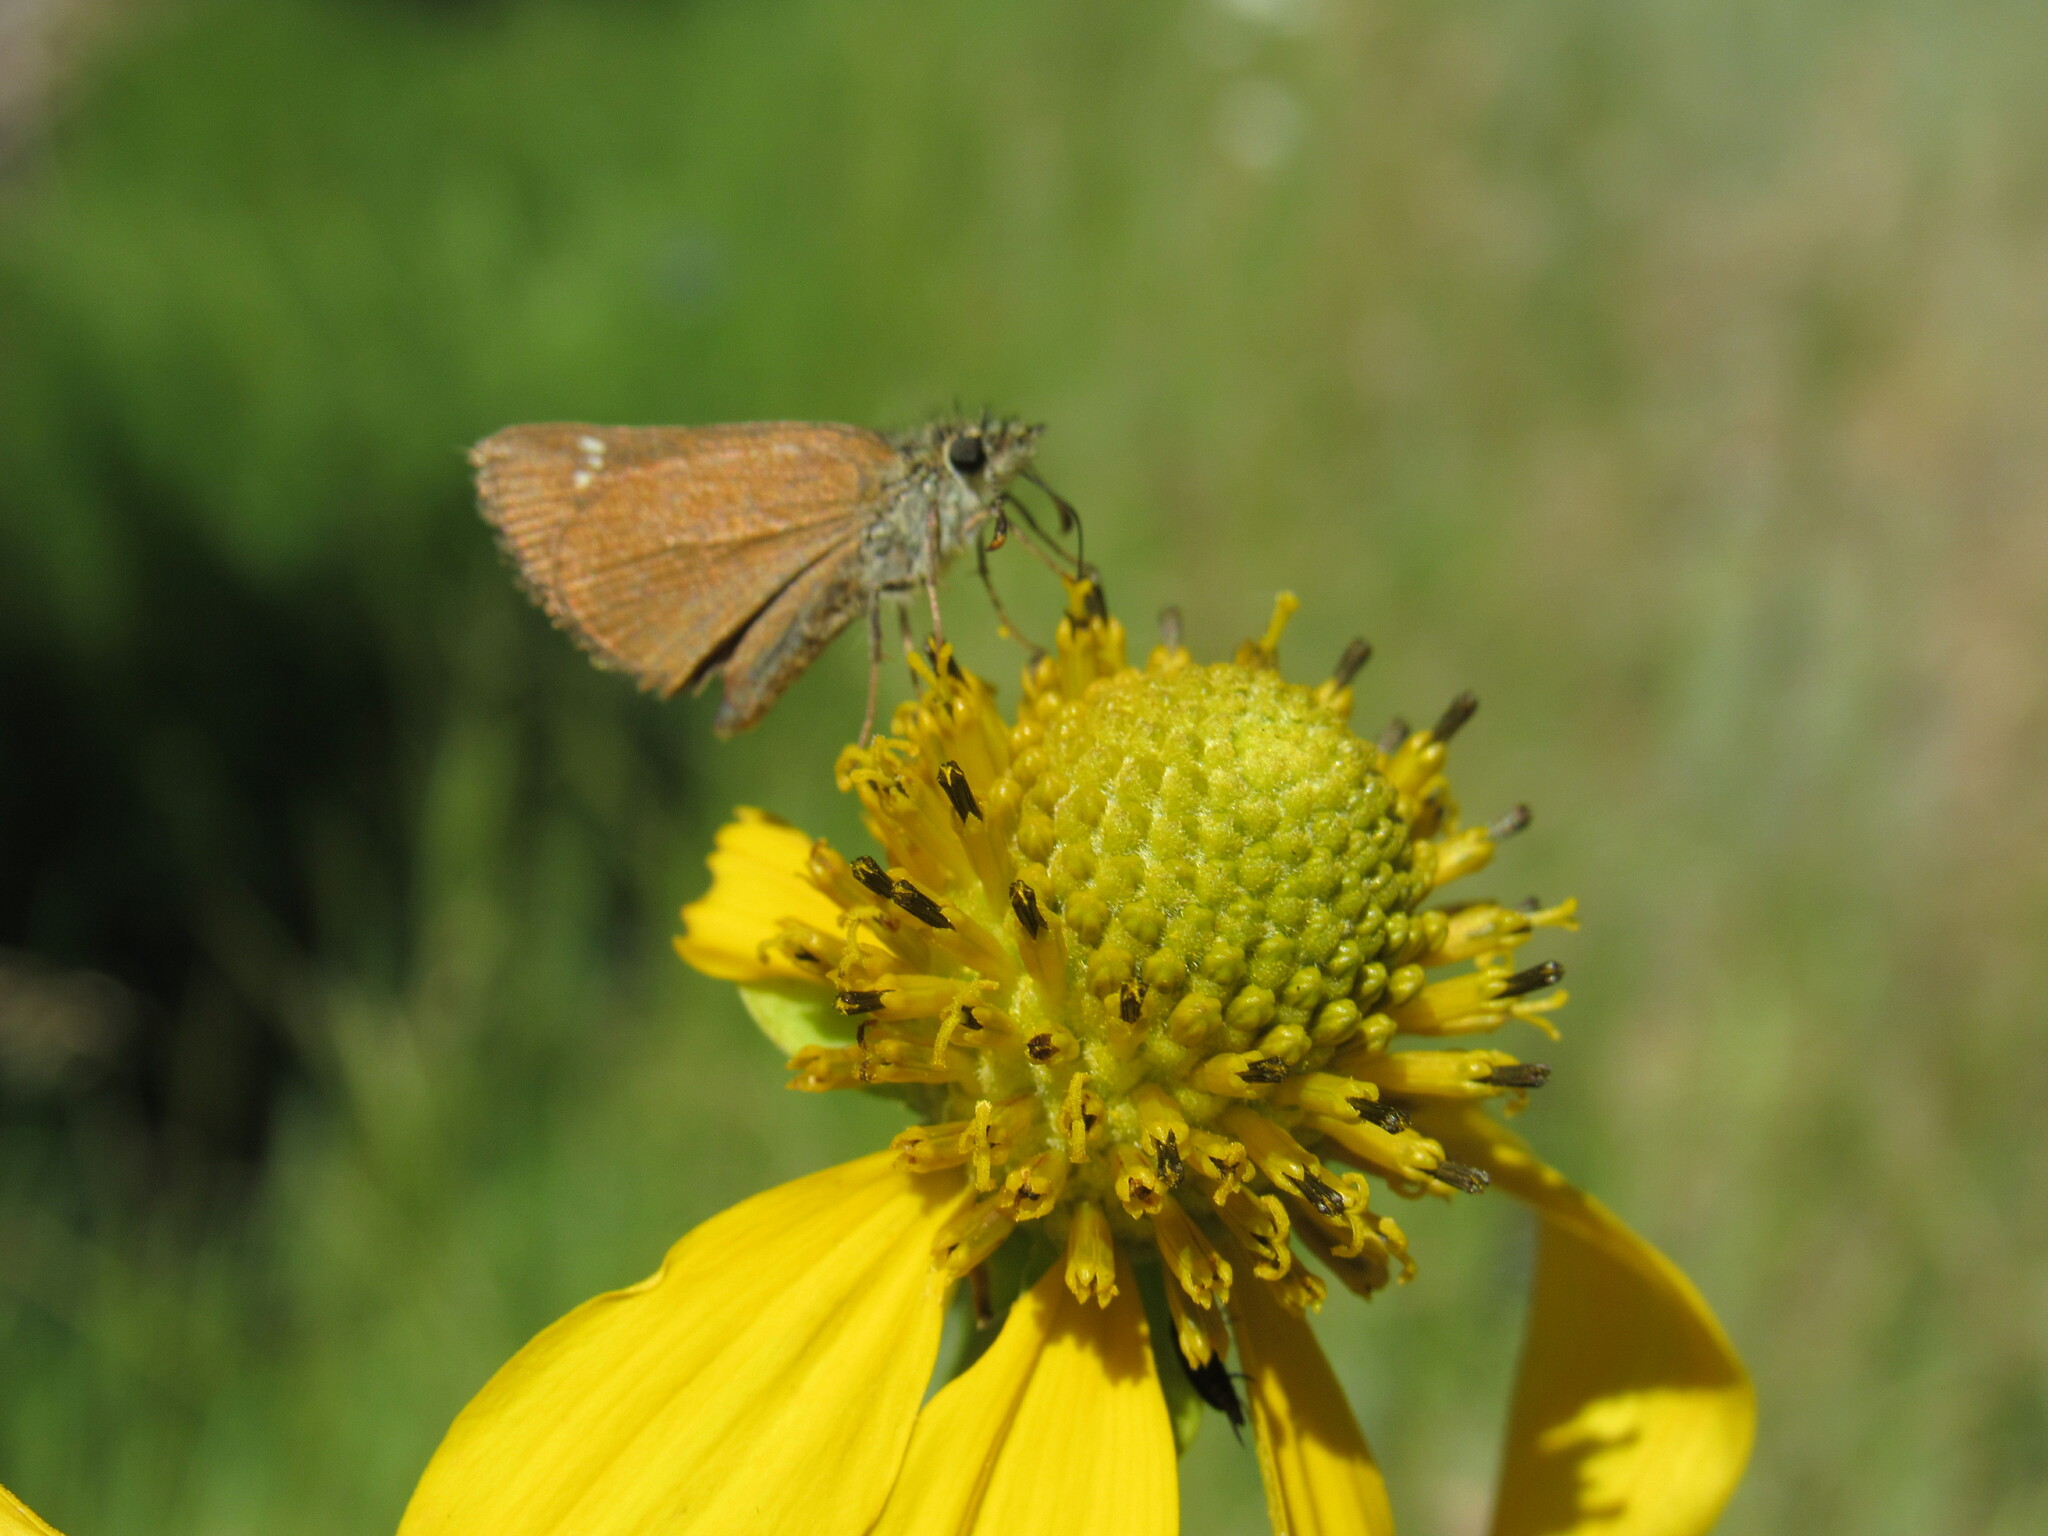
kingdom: Animalia
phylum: Arthropoda
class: Insecta
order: Lepidoptera
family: Hesperiidae
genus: Piruna
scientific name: Piruna pirus
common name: Russet skipperling
